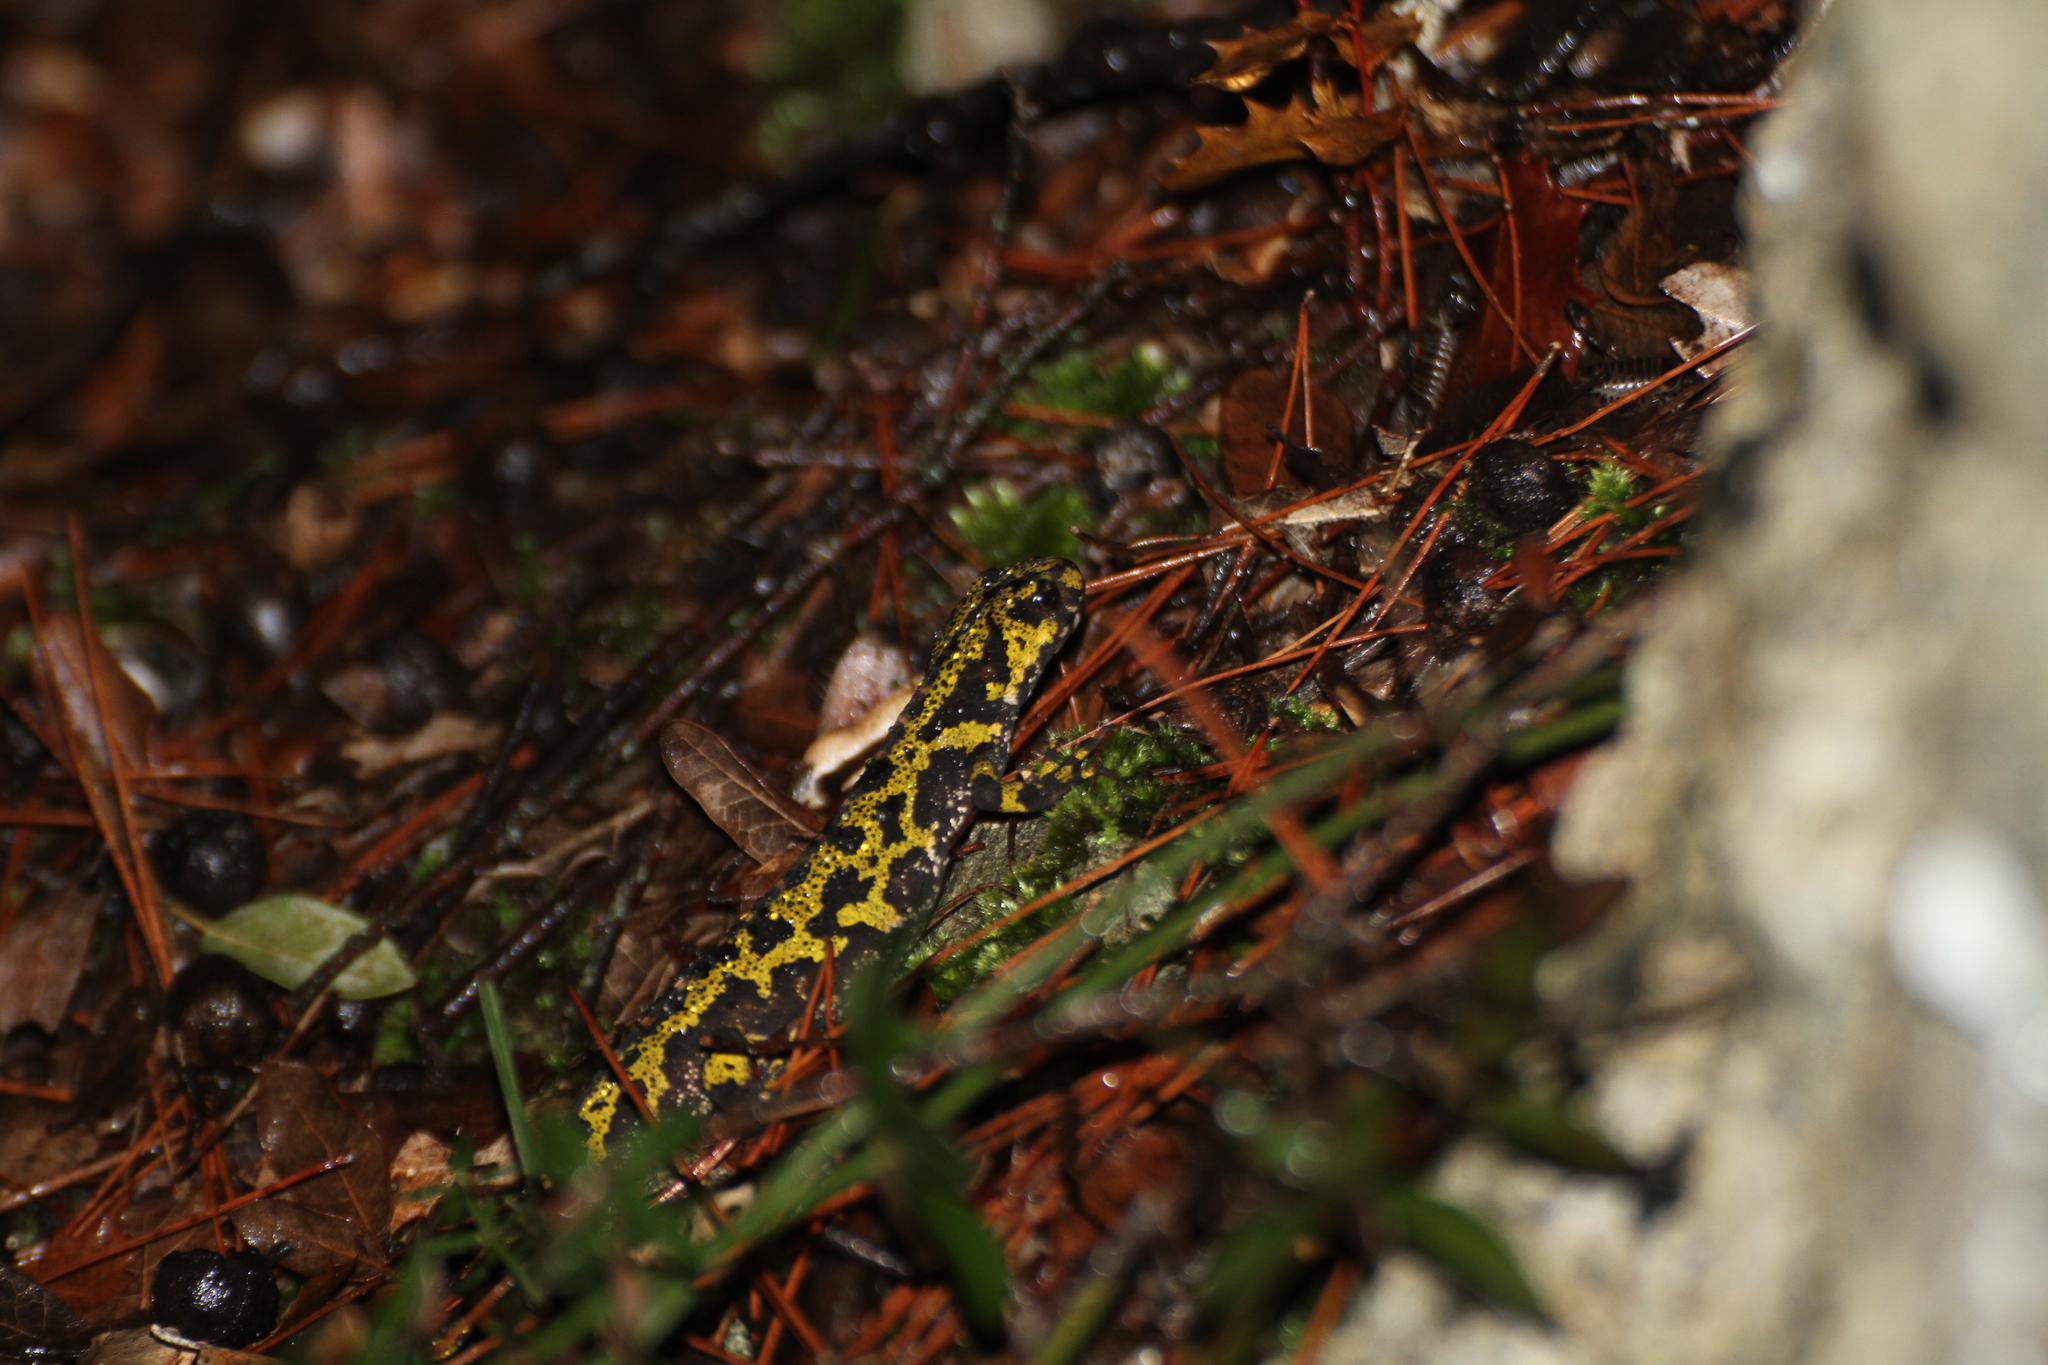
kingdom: Animalia
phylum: Chordata
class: Amphibia
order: Caudata
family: Salamandridae
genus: Triturus
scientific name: Triturus marmoratus
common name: Marbled newt
